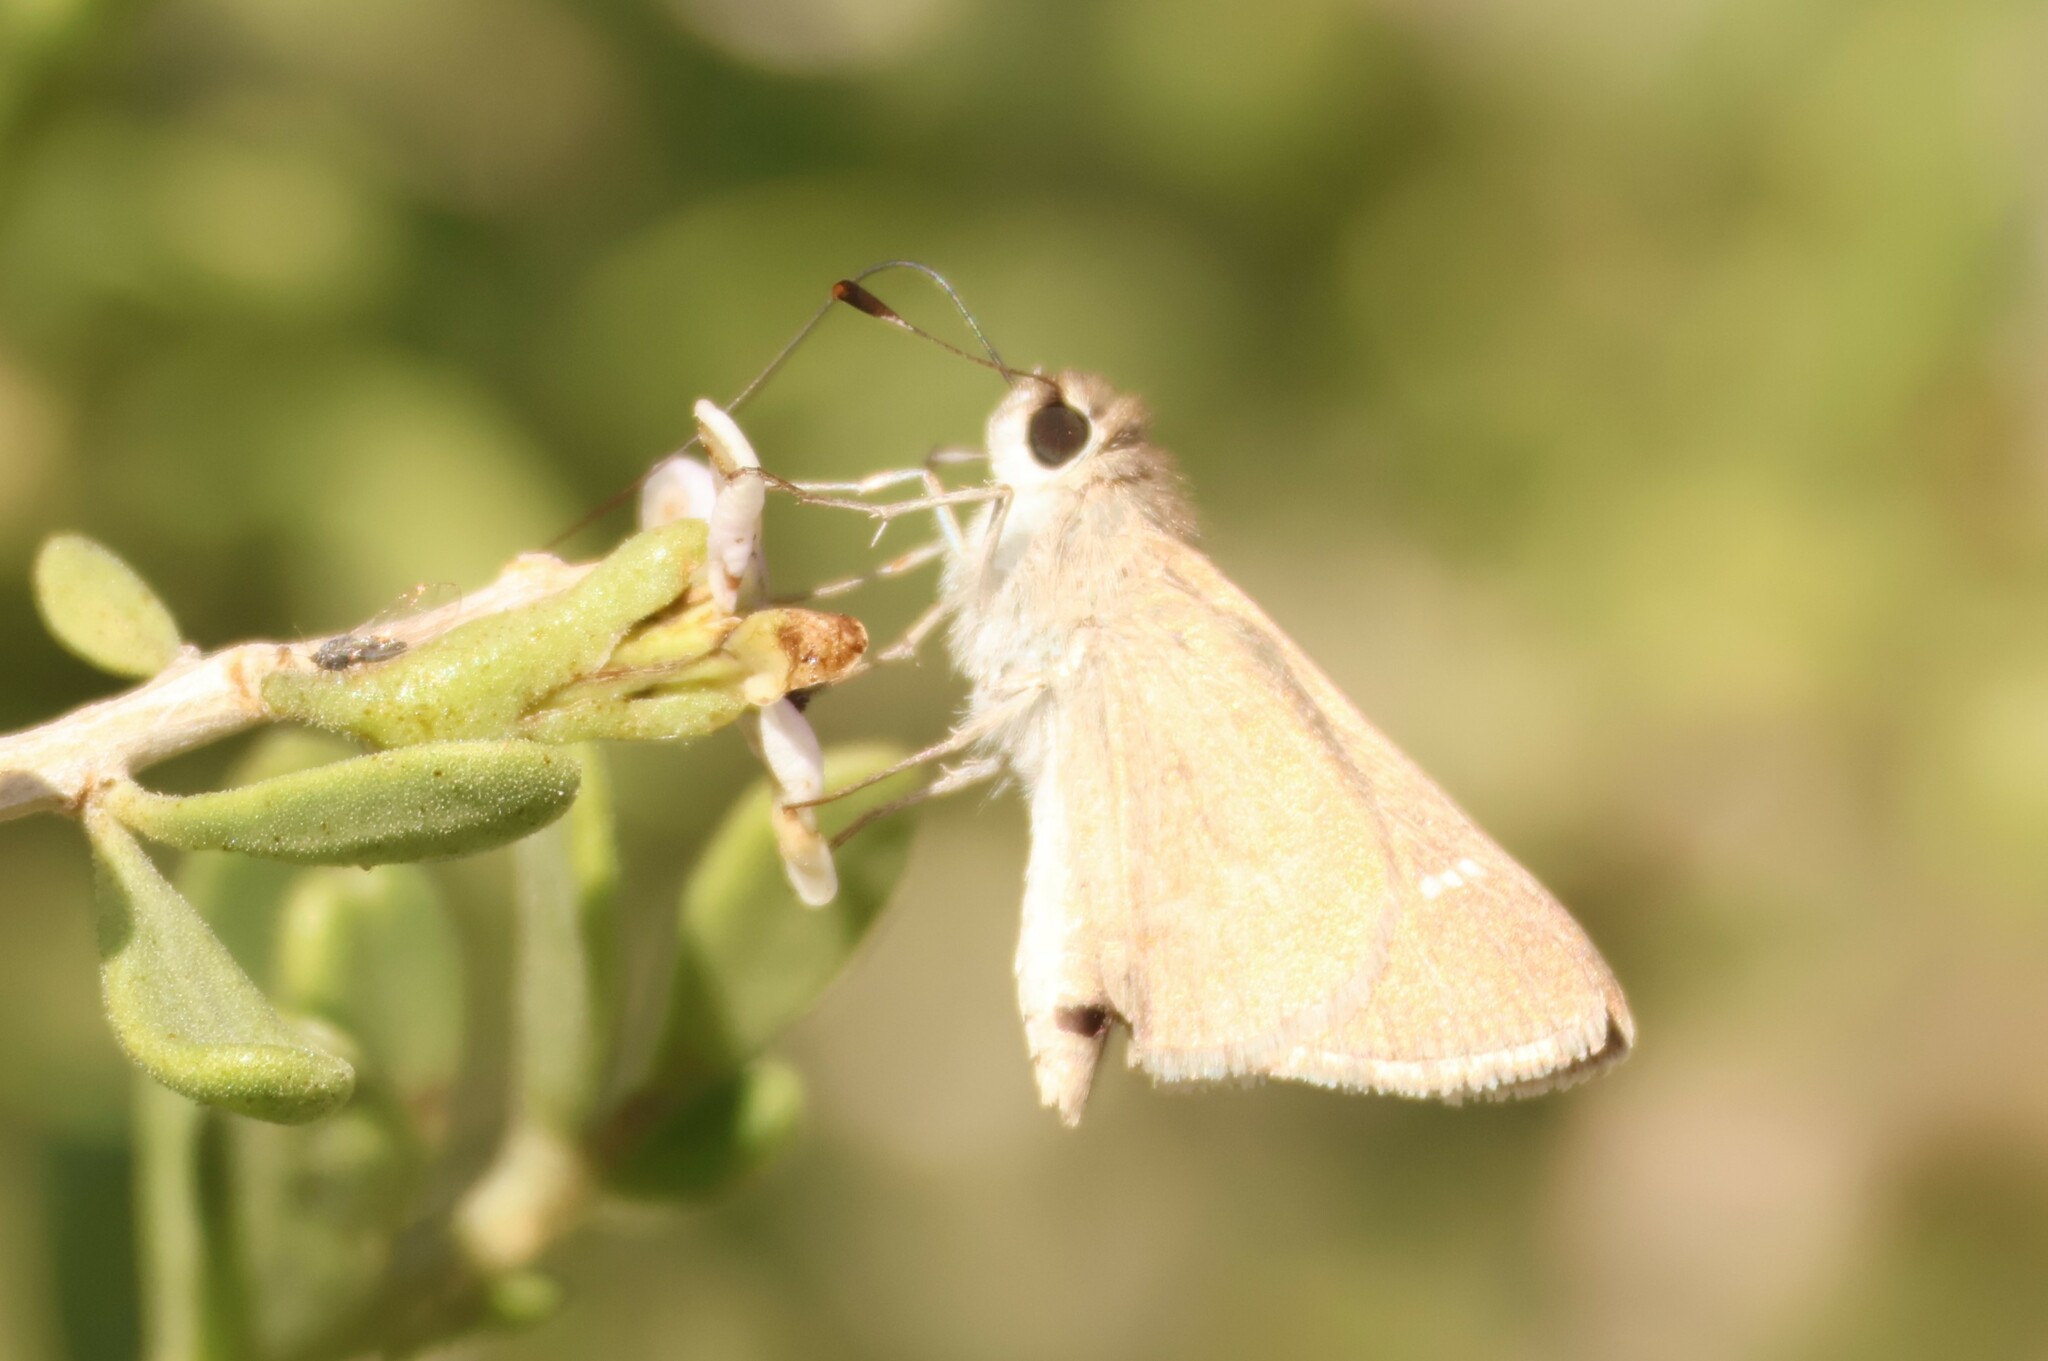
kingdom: Animalia
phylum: Arthropoda
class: Insecta
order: Lepidoptera
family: Hesperiidae
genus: Lerodea
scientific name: Lerodea eufala
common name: Eufala skipper
